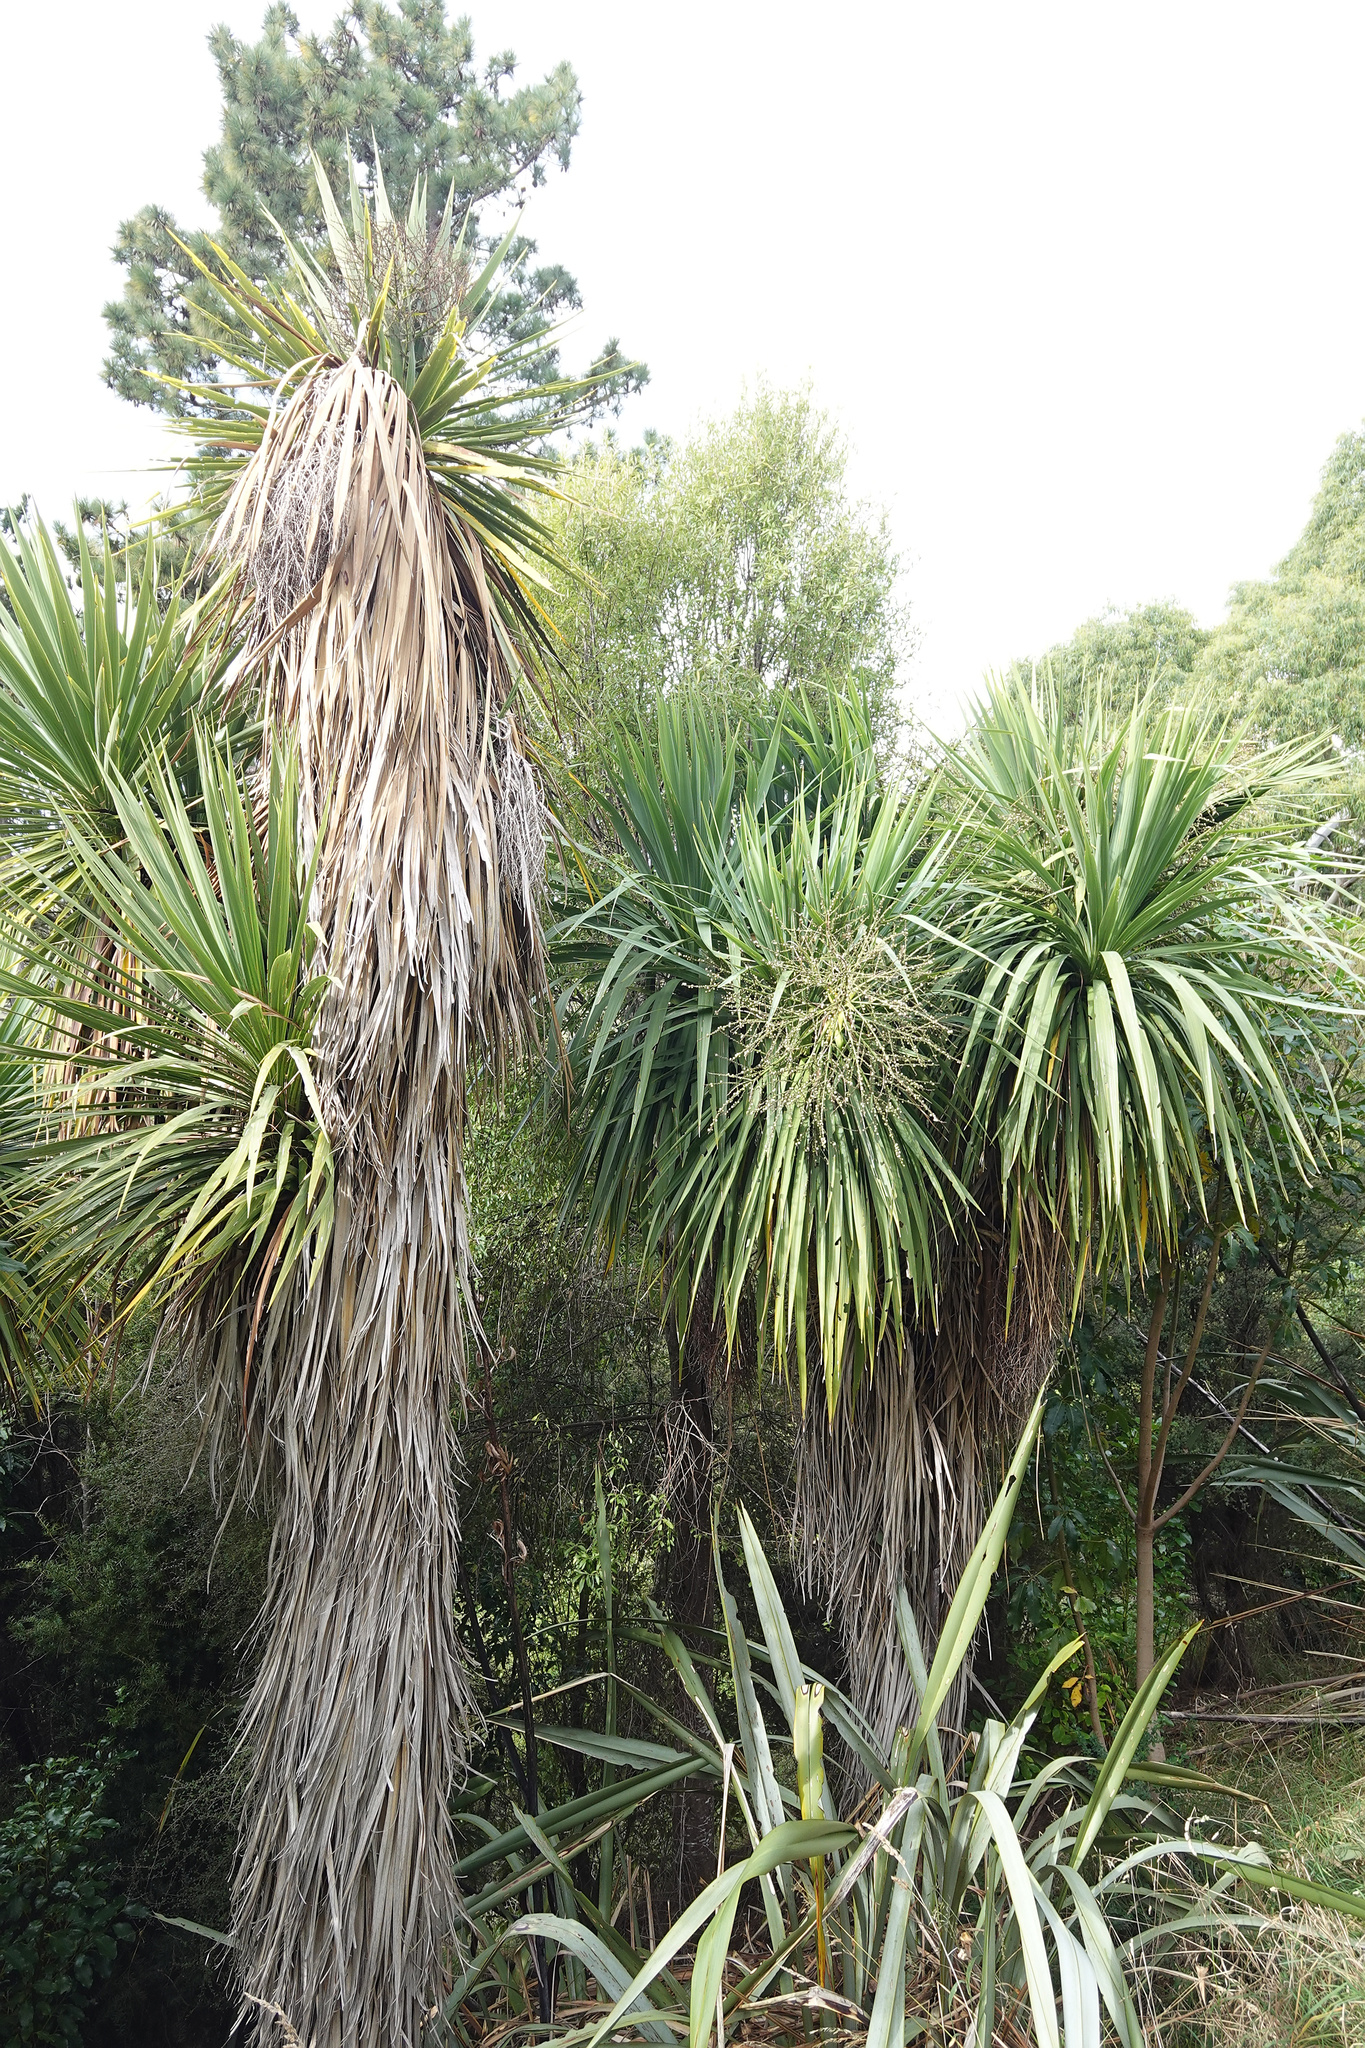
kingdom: Plantae
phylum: Tracheophyta
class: Liliopsida
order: Asparagales
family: Asparagaceae
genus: Cordyline
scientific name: Cordyline australis
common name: Cabbage-palm
